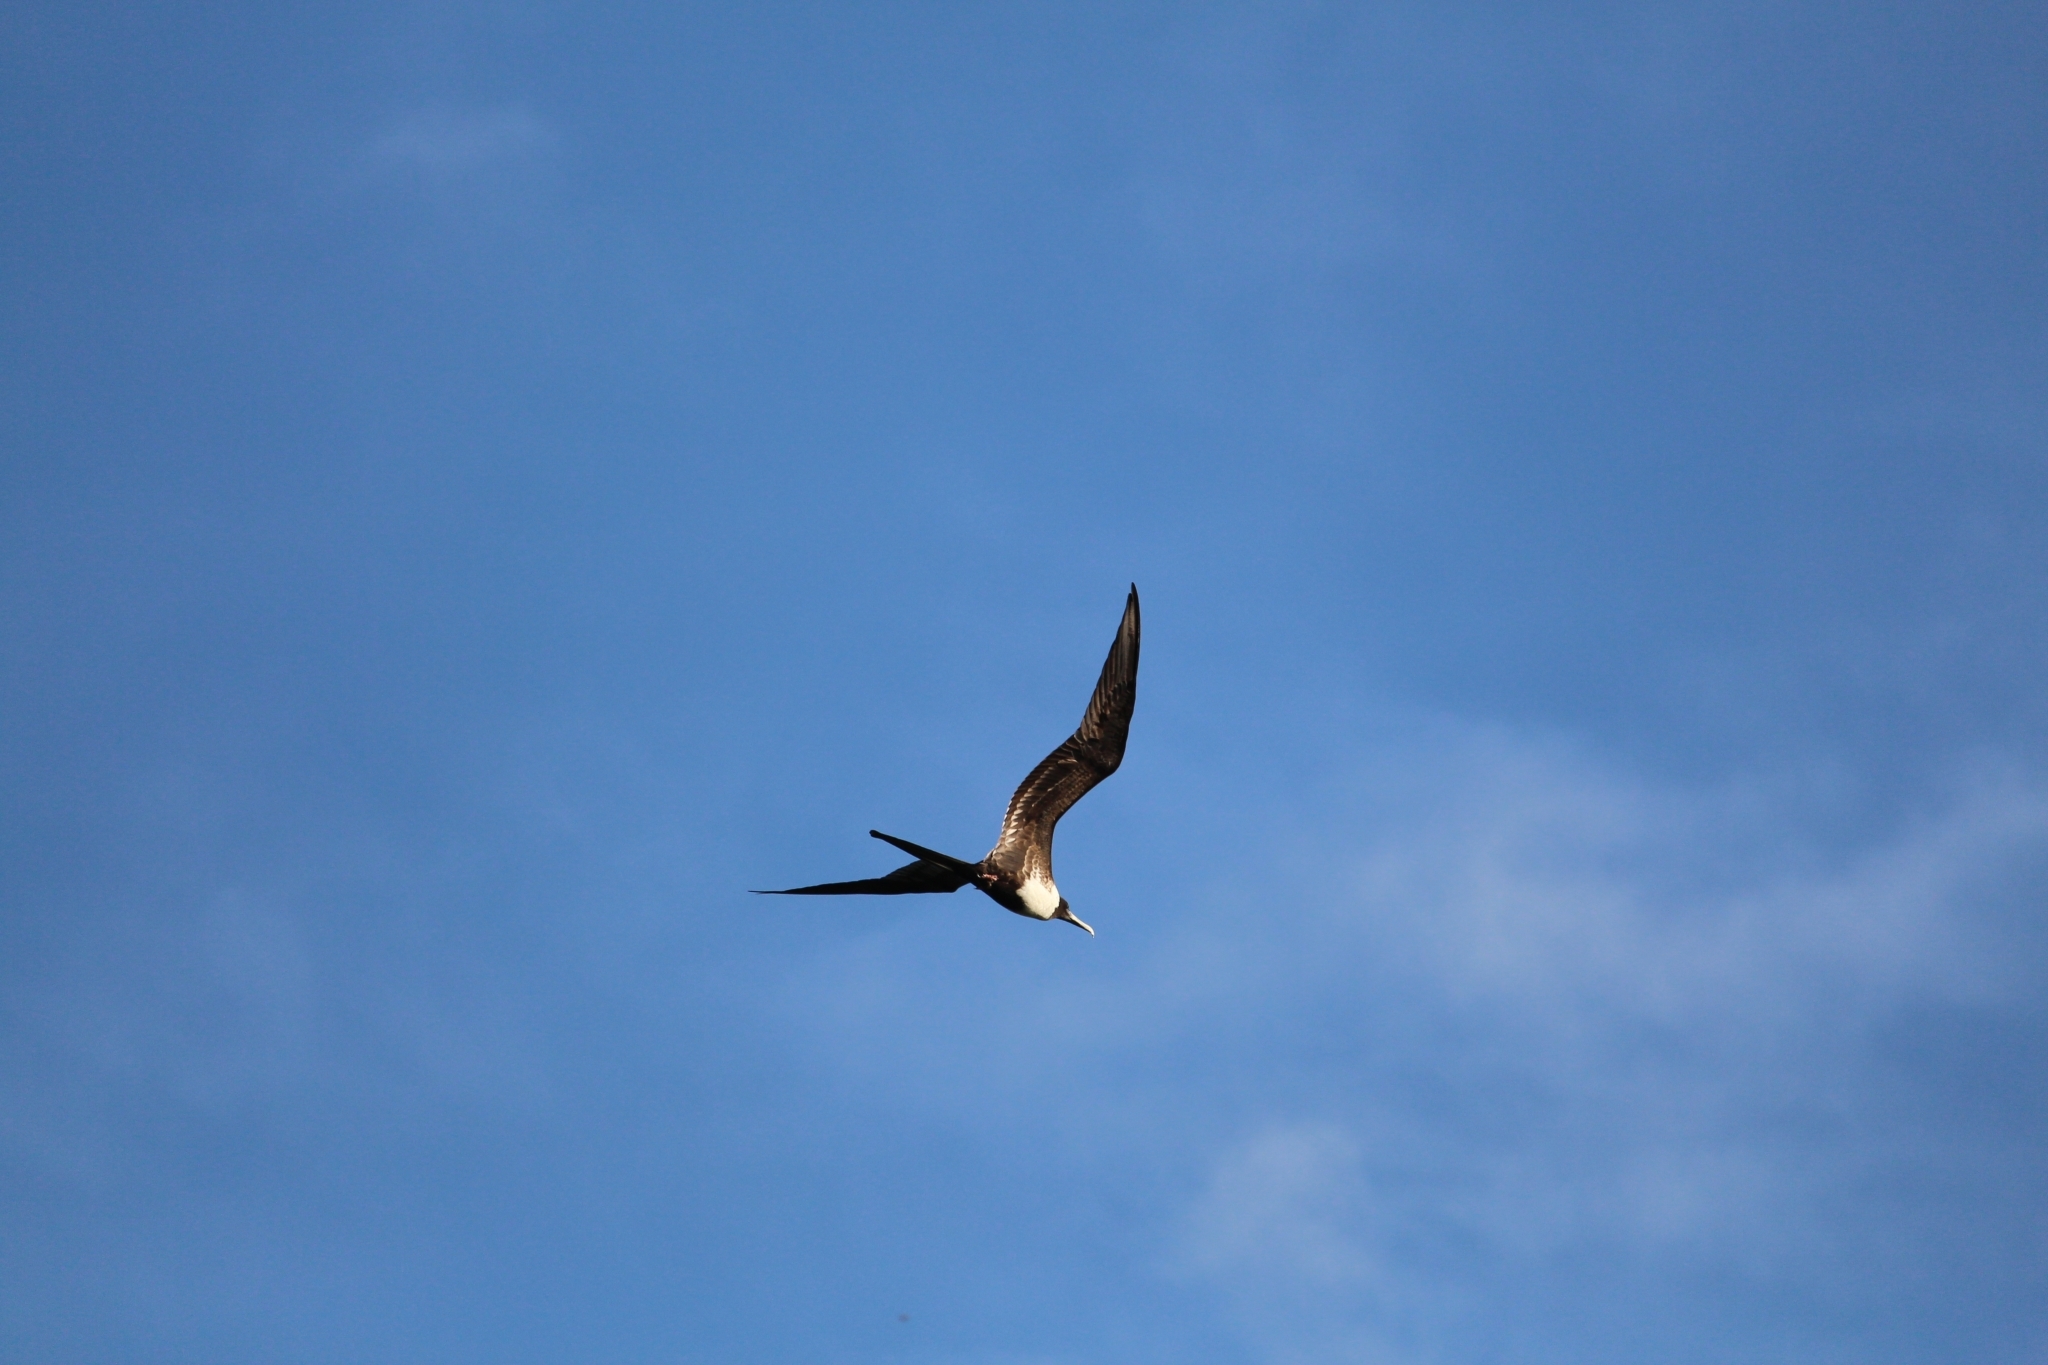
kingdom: Animalia
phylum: Chordata
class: Aves
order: Suliformes
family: Fregatidae
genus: Fregata
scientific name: Fregata magnificens
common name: Magnificent frigatebird
